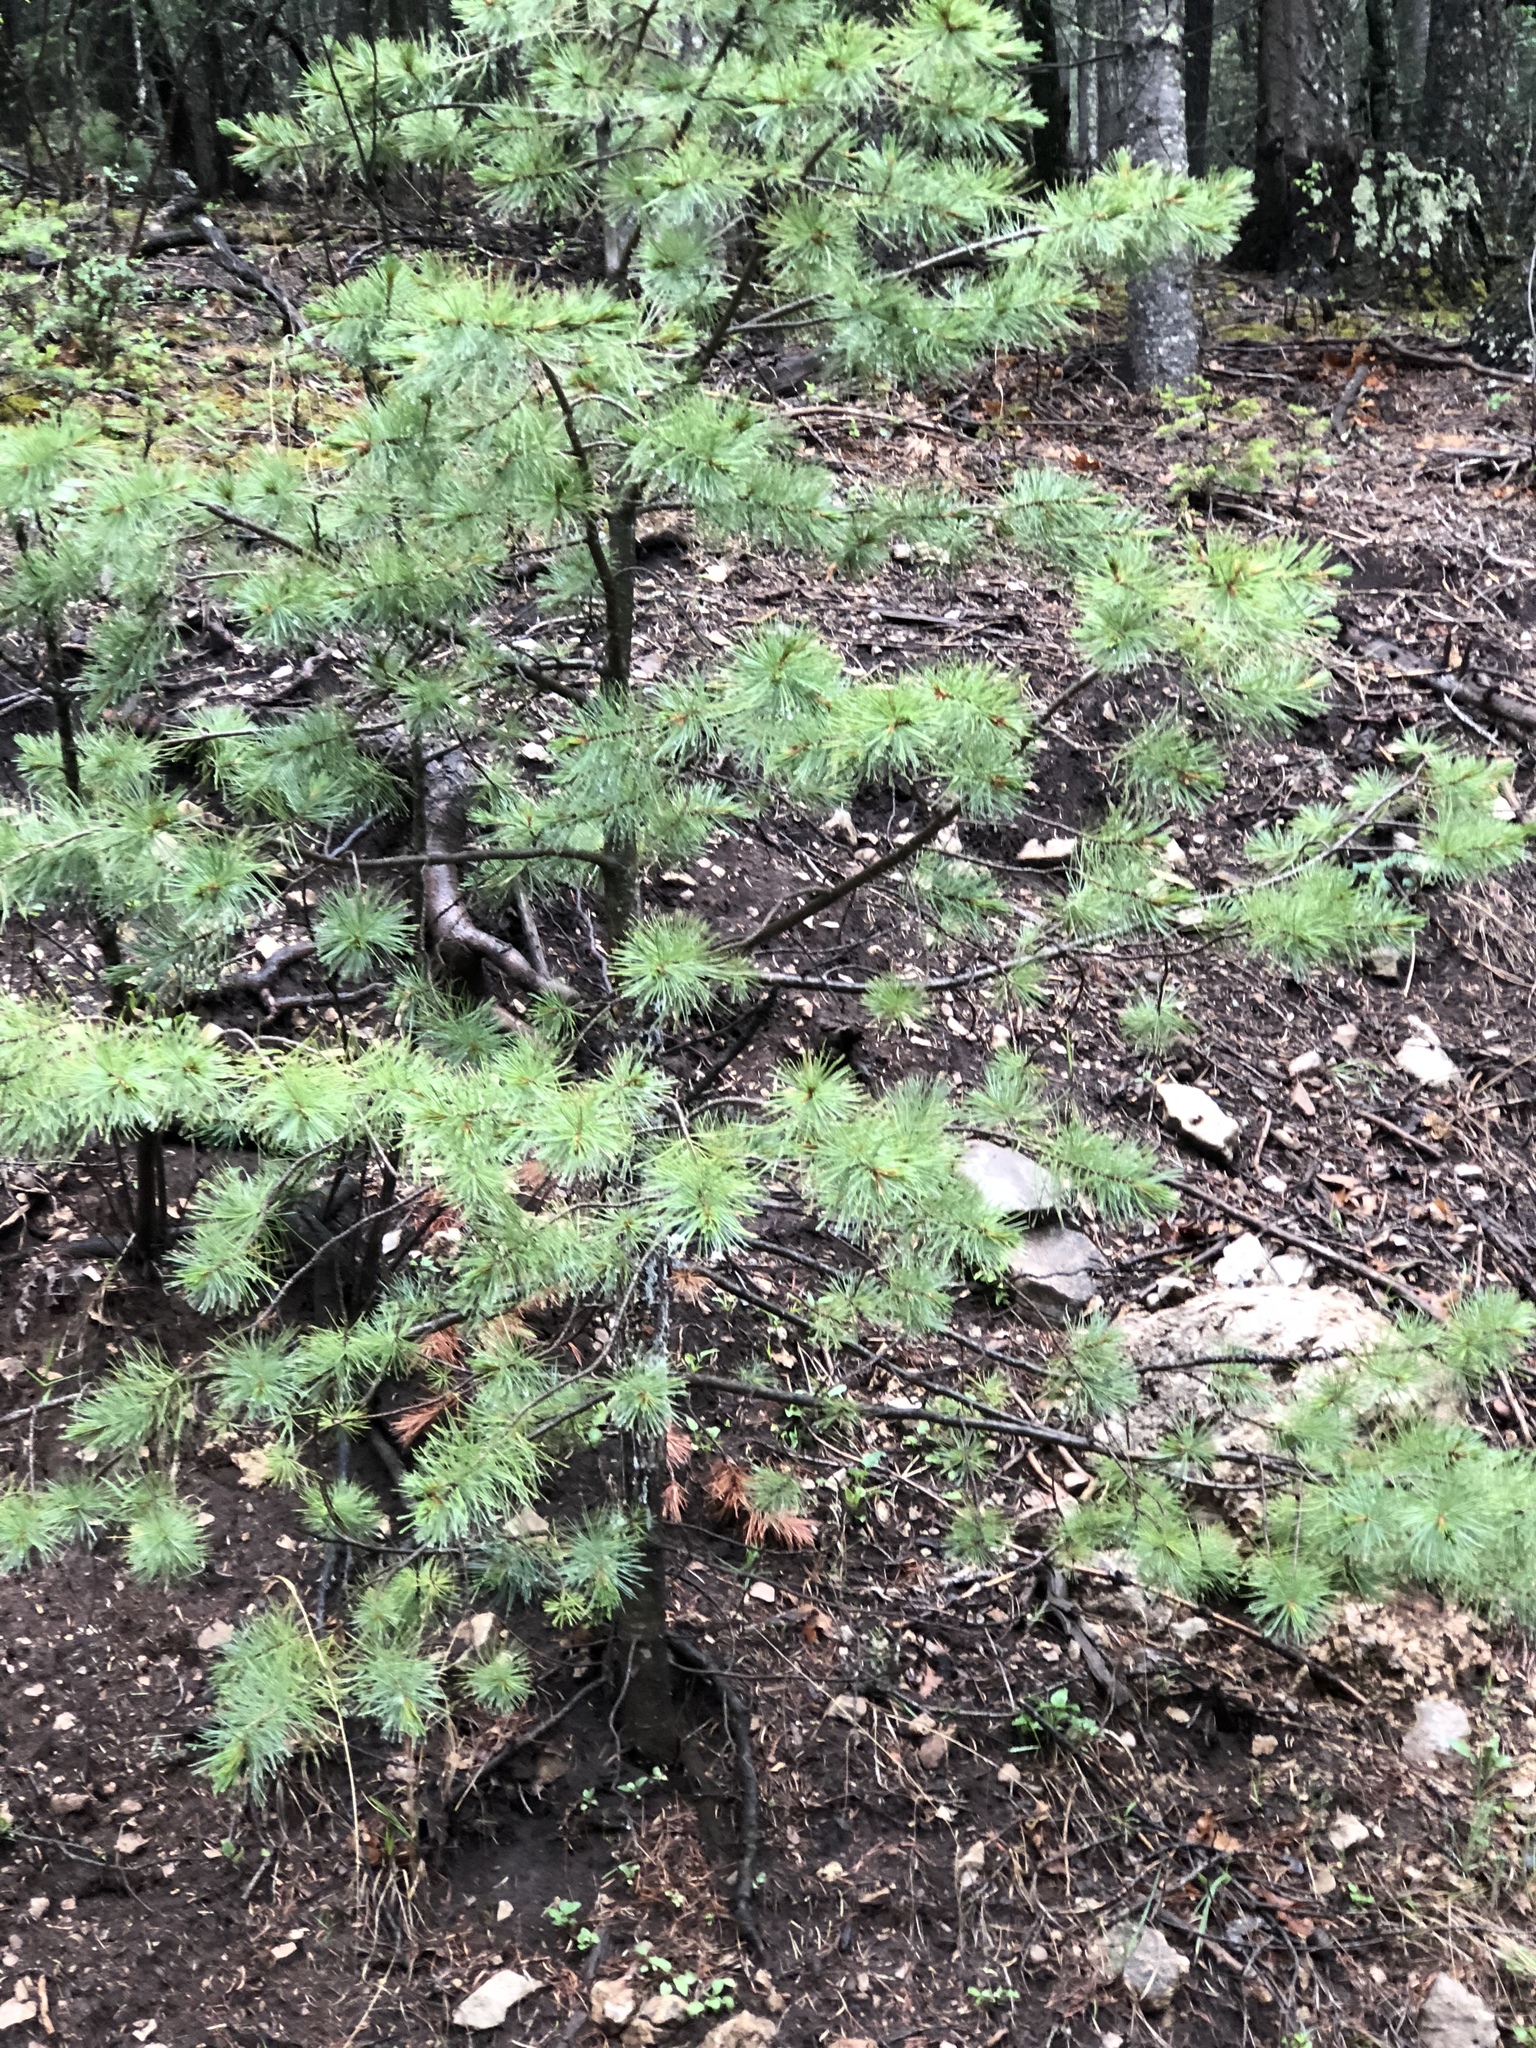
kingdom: Plantae
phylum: Tracheophyta
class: Pinopsida
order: Pinales
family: Pinaceae
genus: Pinus
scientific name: Pinus strobiformis
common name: Southwestern white pine
